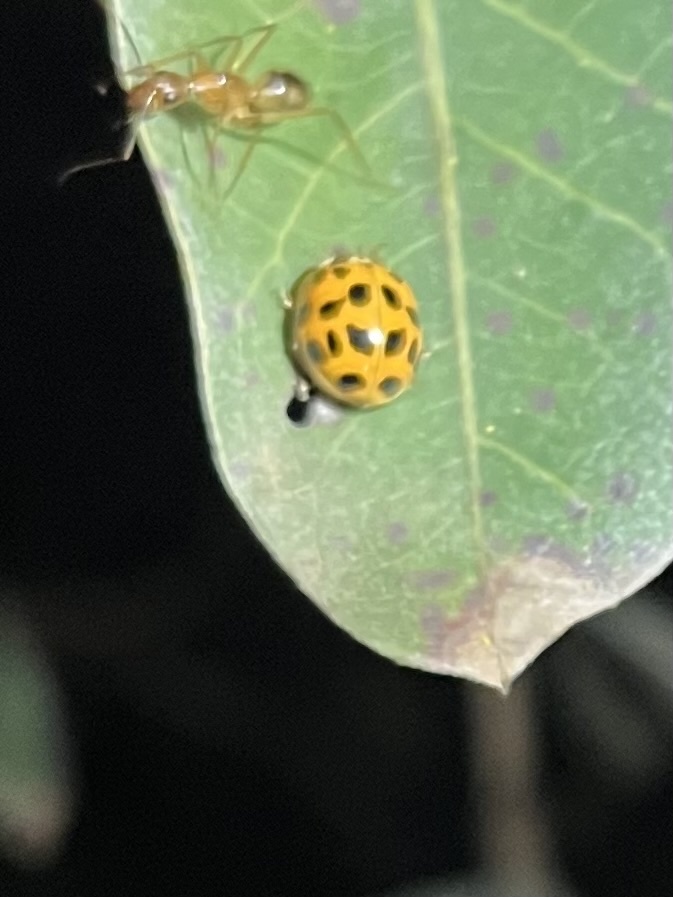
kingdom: Animalia
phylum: Arthropoda
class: Insecta
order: Coleoptera
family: Coccinellidae
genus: Harmonia
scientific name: Harmonia axyridis
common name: Harlequin ladybird
